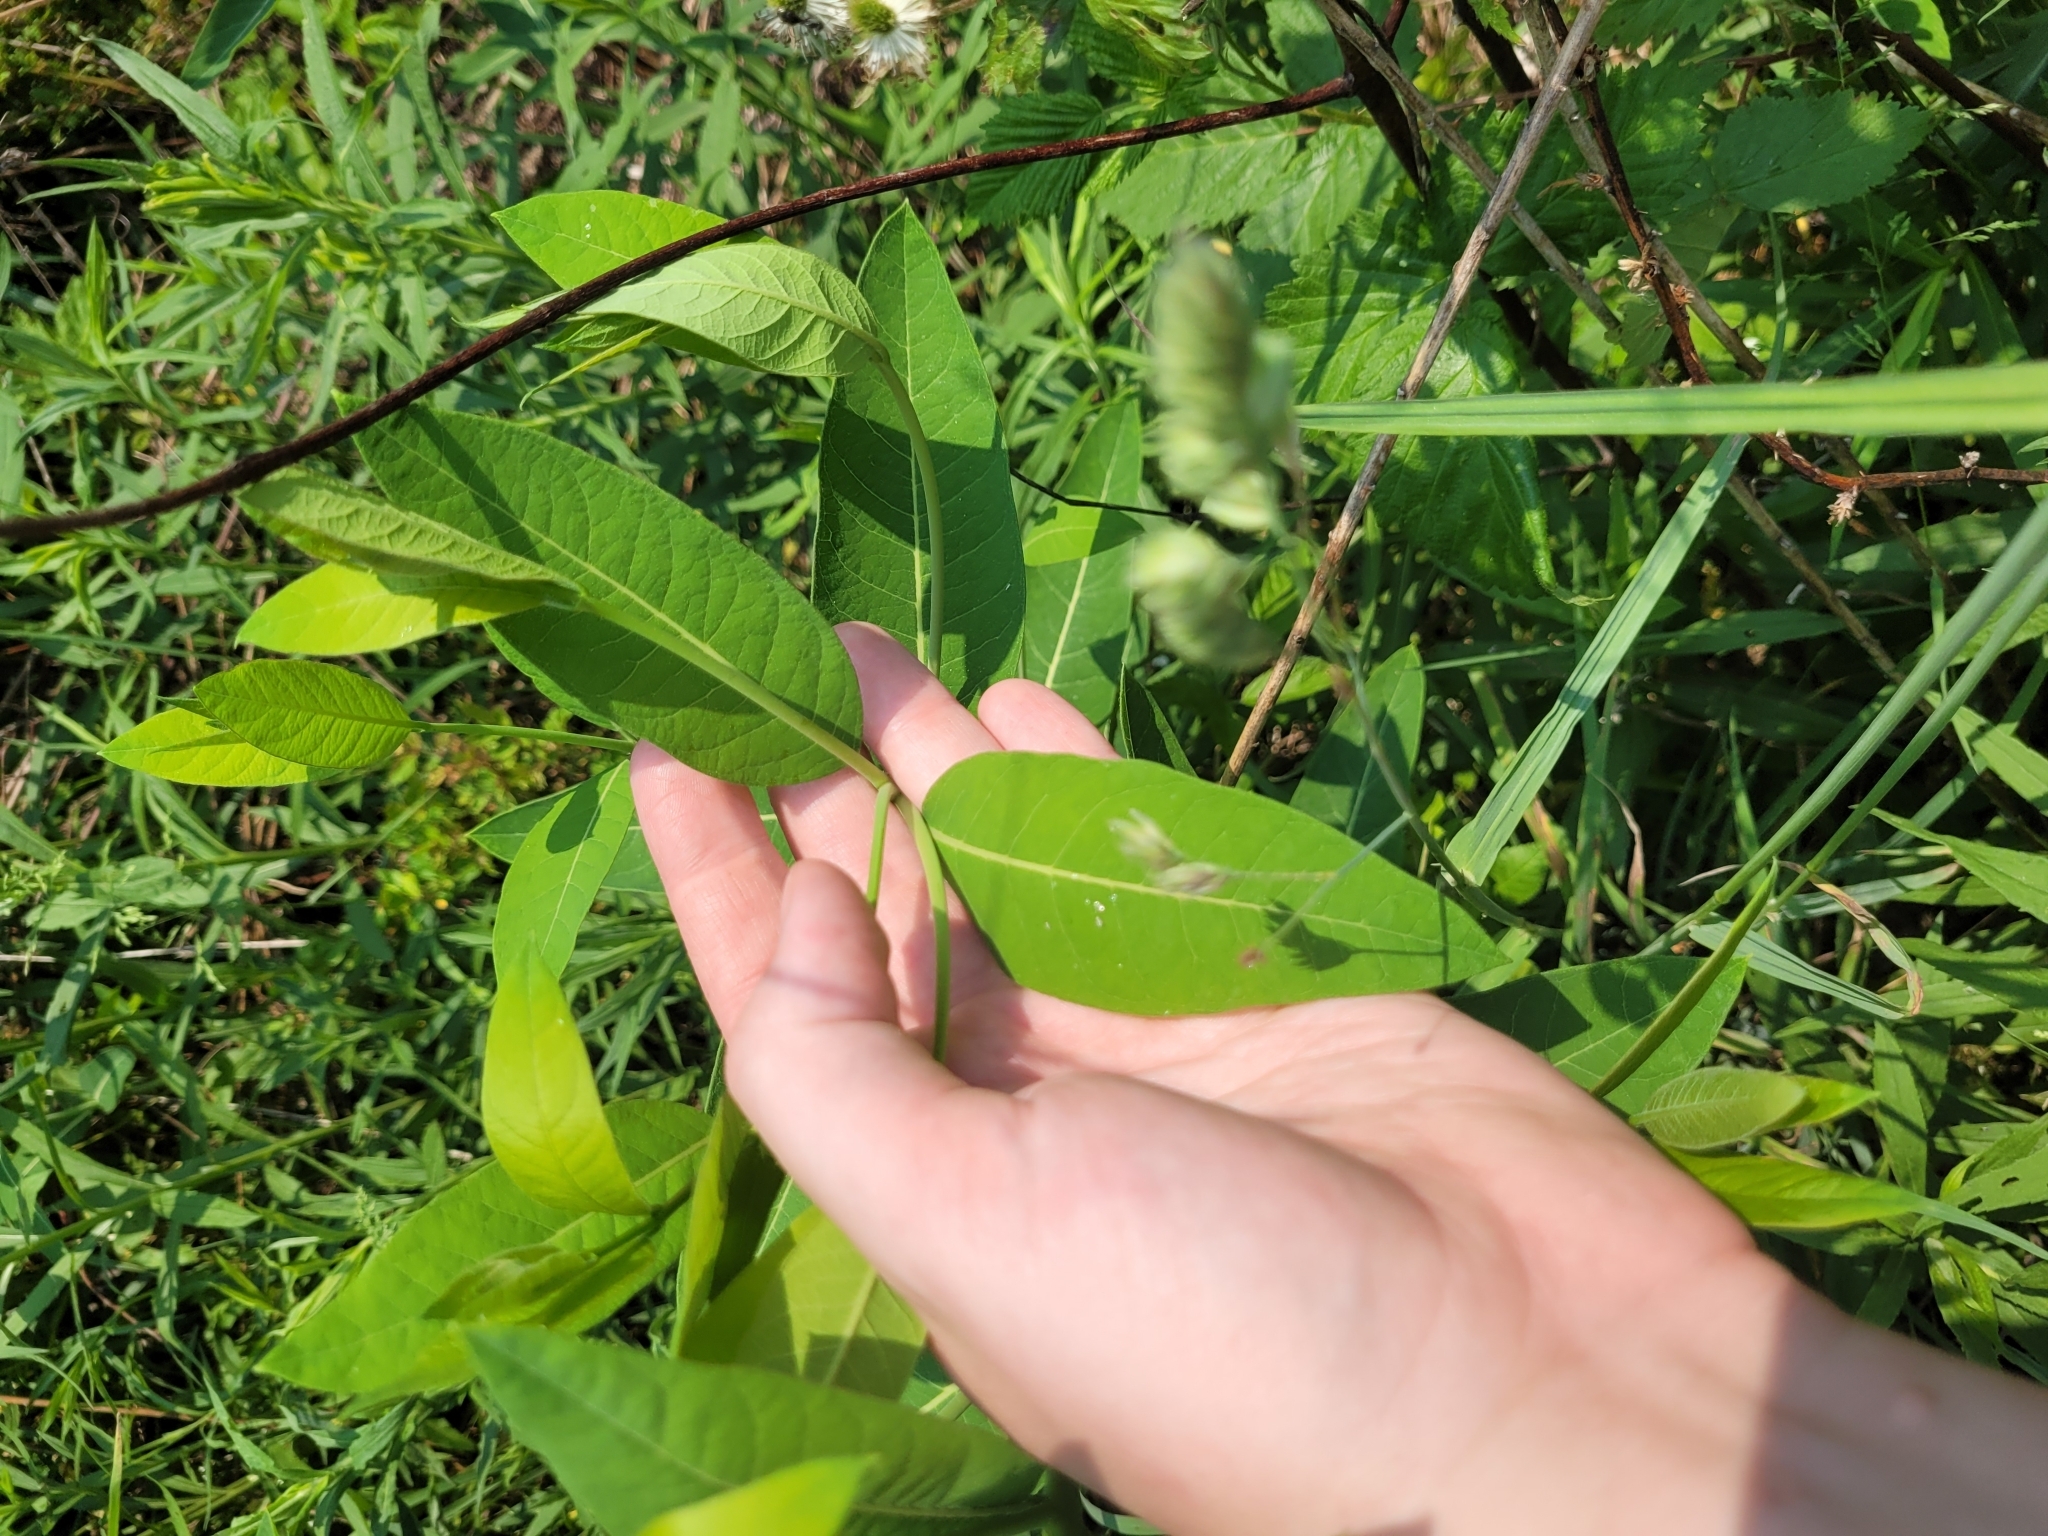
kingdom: Plantae
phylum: Tracheophyta
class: Magnoliopsida
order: Gentianales
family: Apocynaceae
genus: Apocynum
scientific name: Apocynum cannabinum
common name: Hemp dogbane
